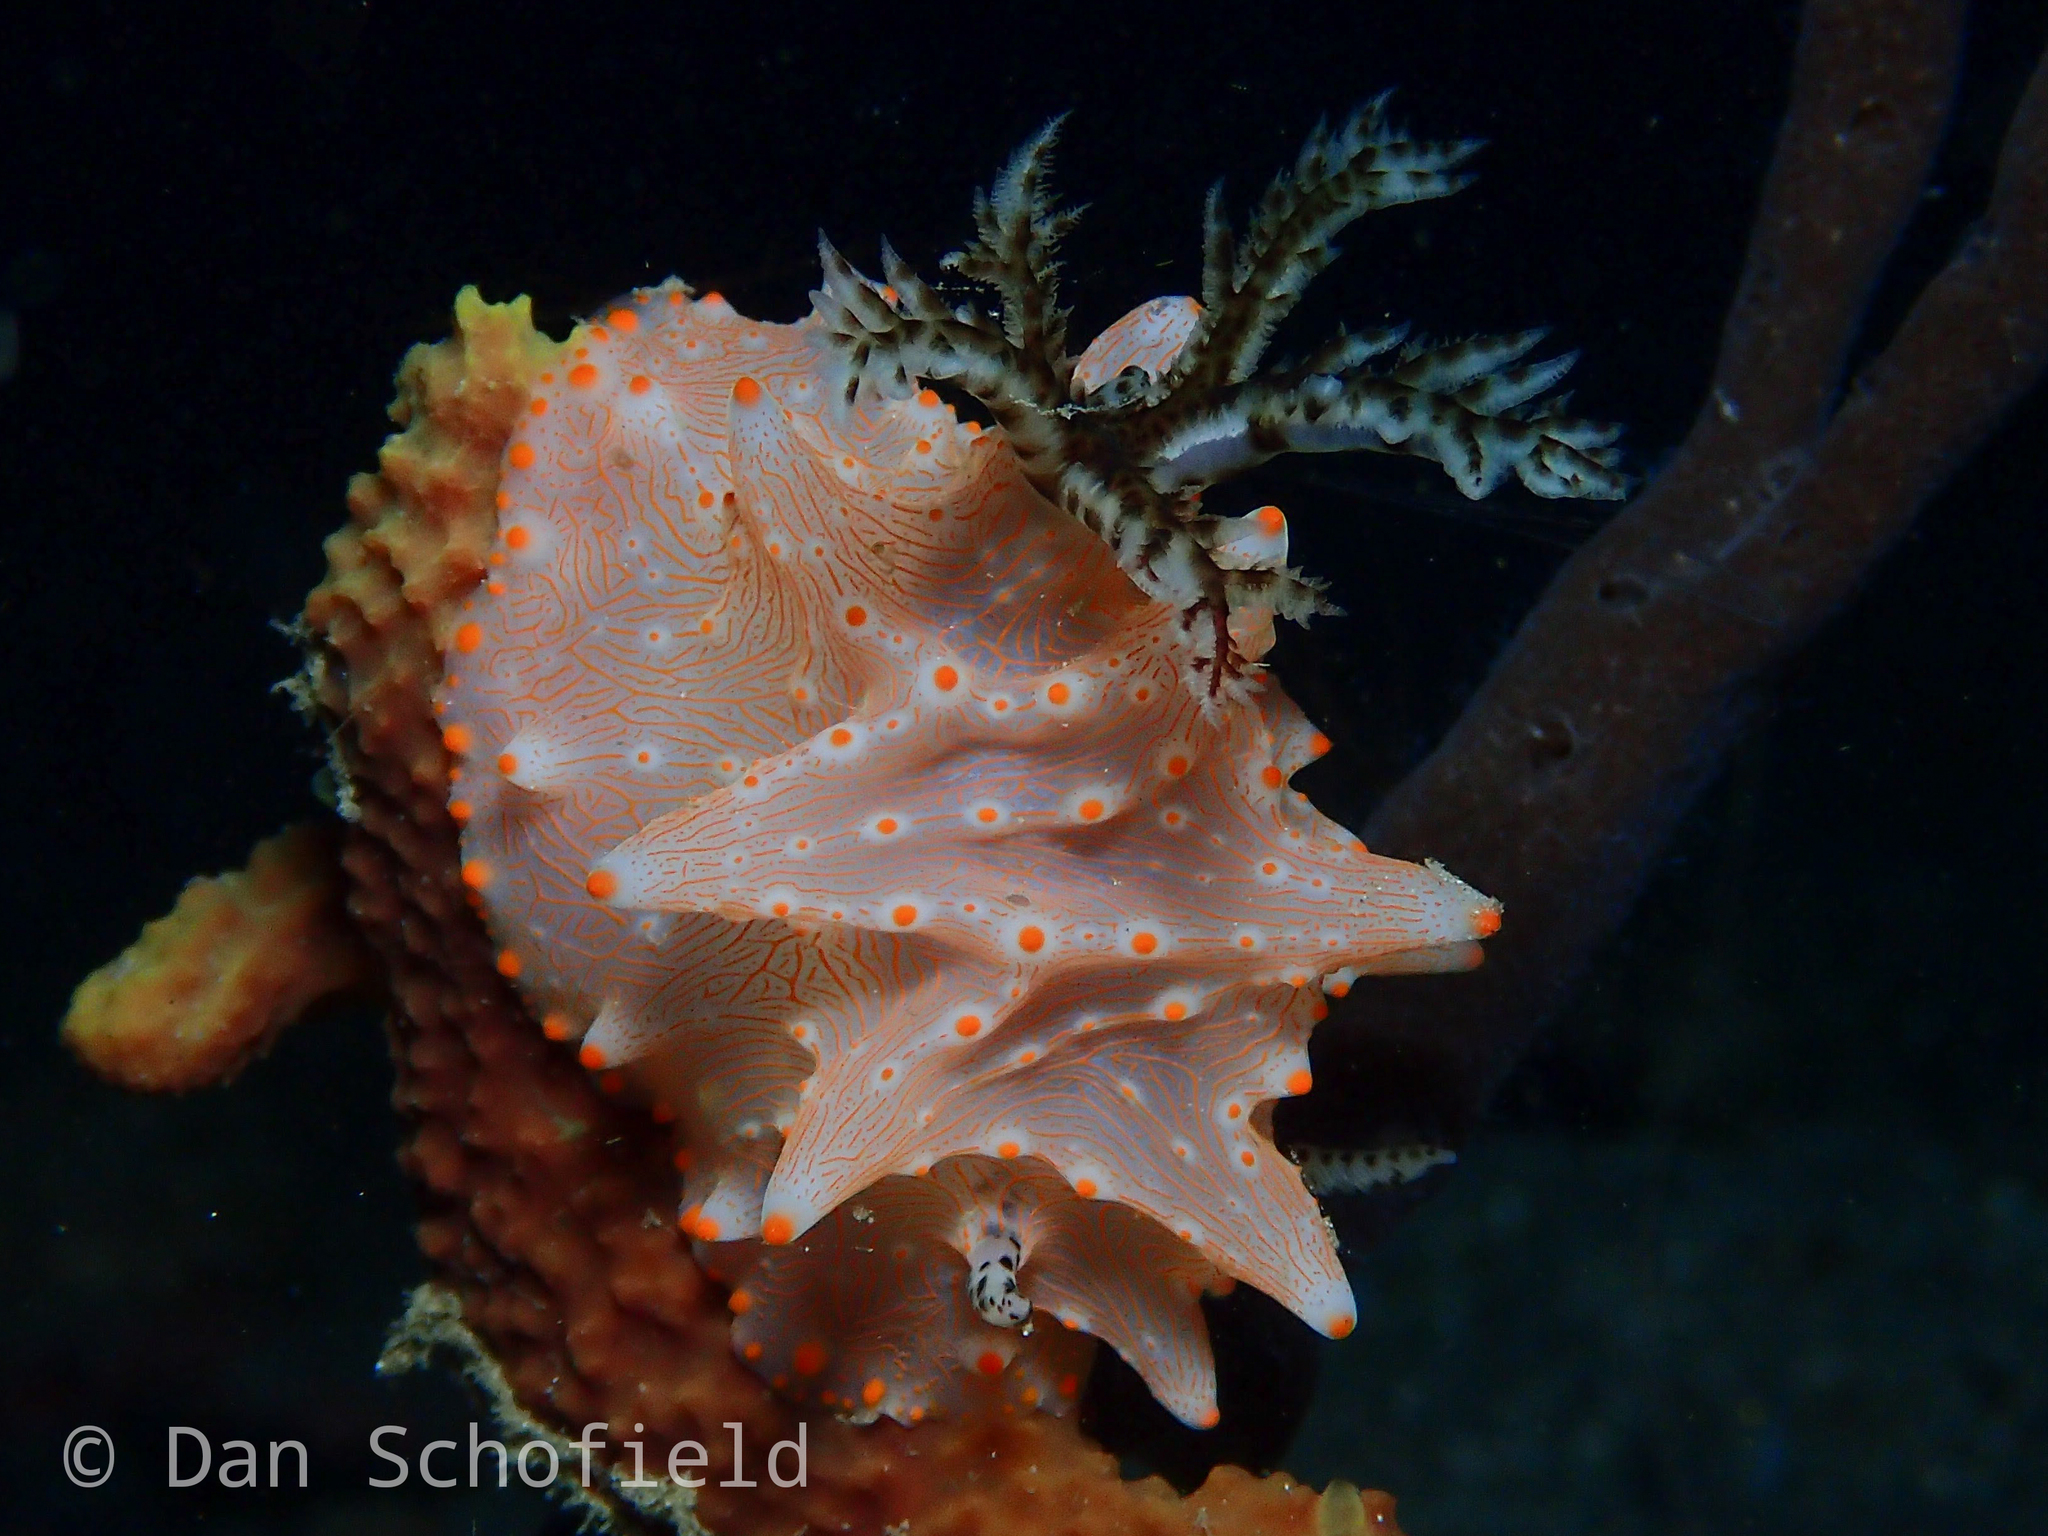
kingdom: Animalia
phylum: Mollusca
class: Gastropoda
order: Nudibranchia
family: Discodorididae
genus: Halgerda
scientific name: Halgerda batangas
